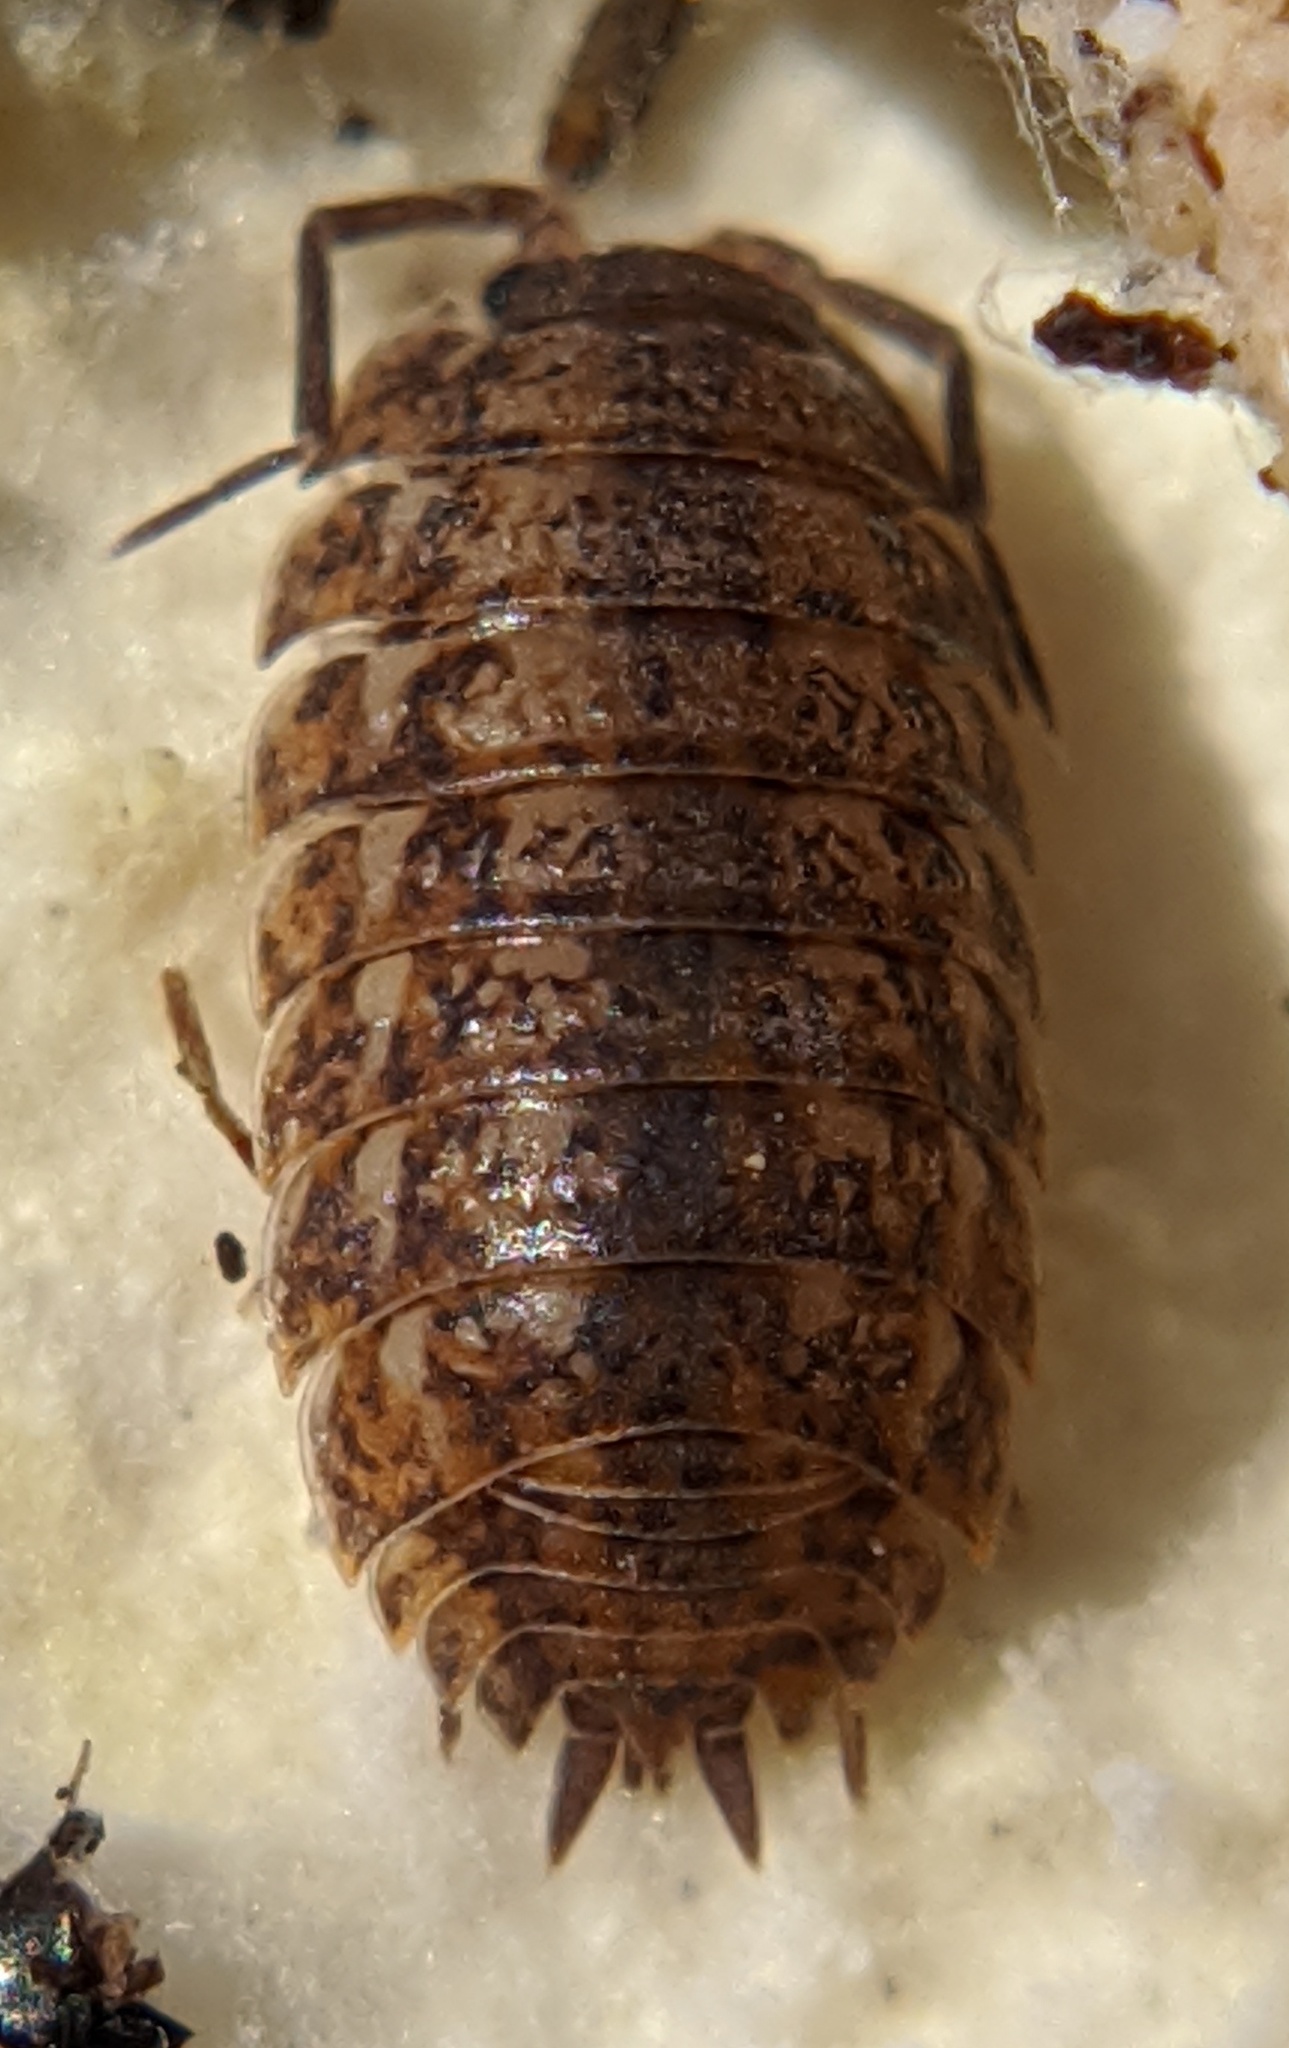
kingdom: Animalia
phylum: Arthropoda
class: Malacostraca
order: Isopoda
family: Trachelipodidae
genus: Trachelipus
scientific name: Trachelipus rathkii
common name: Isopod
